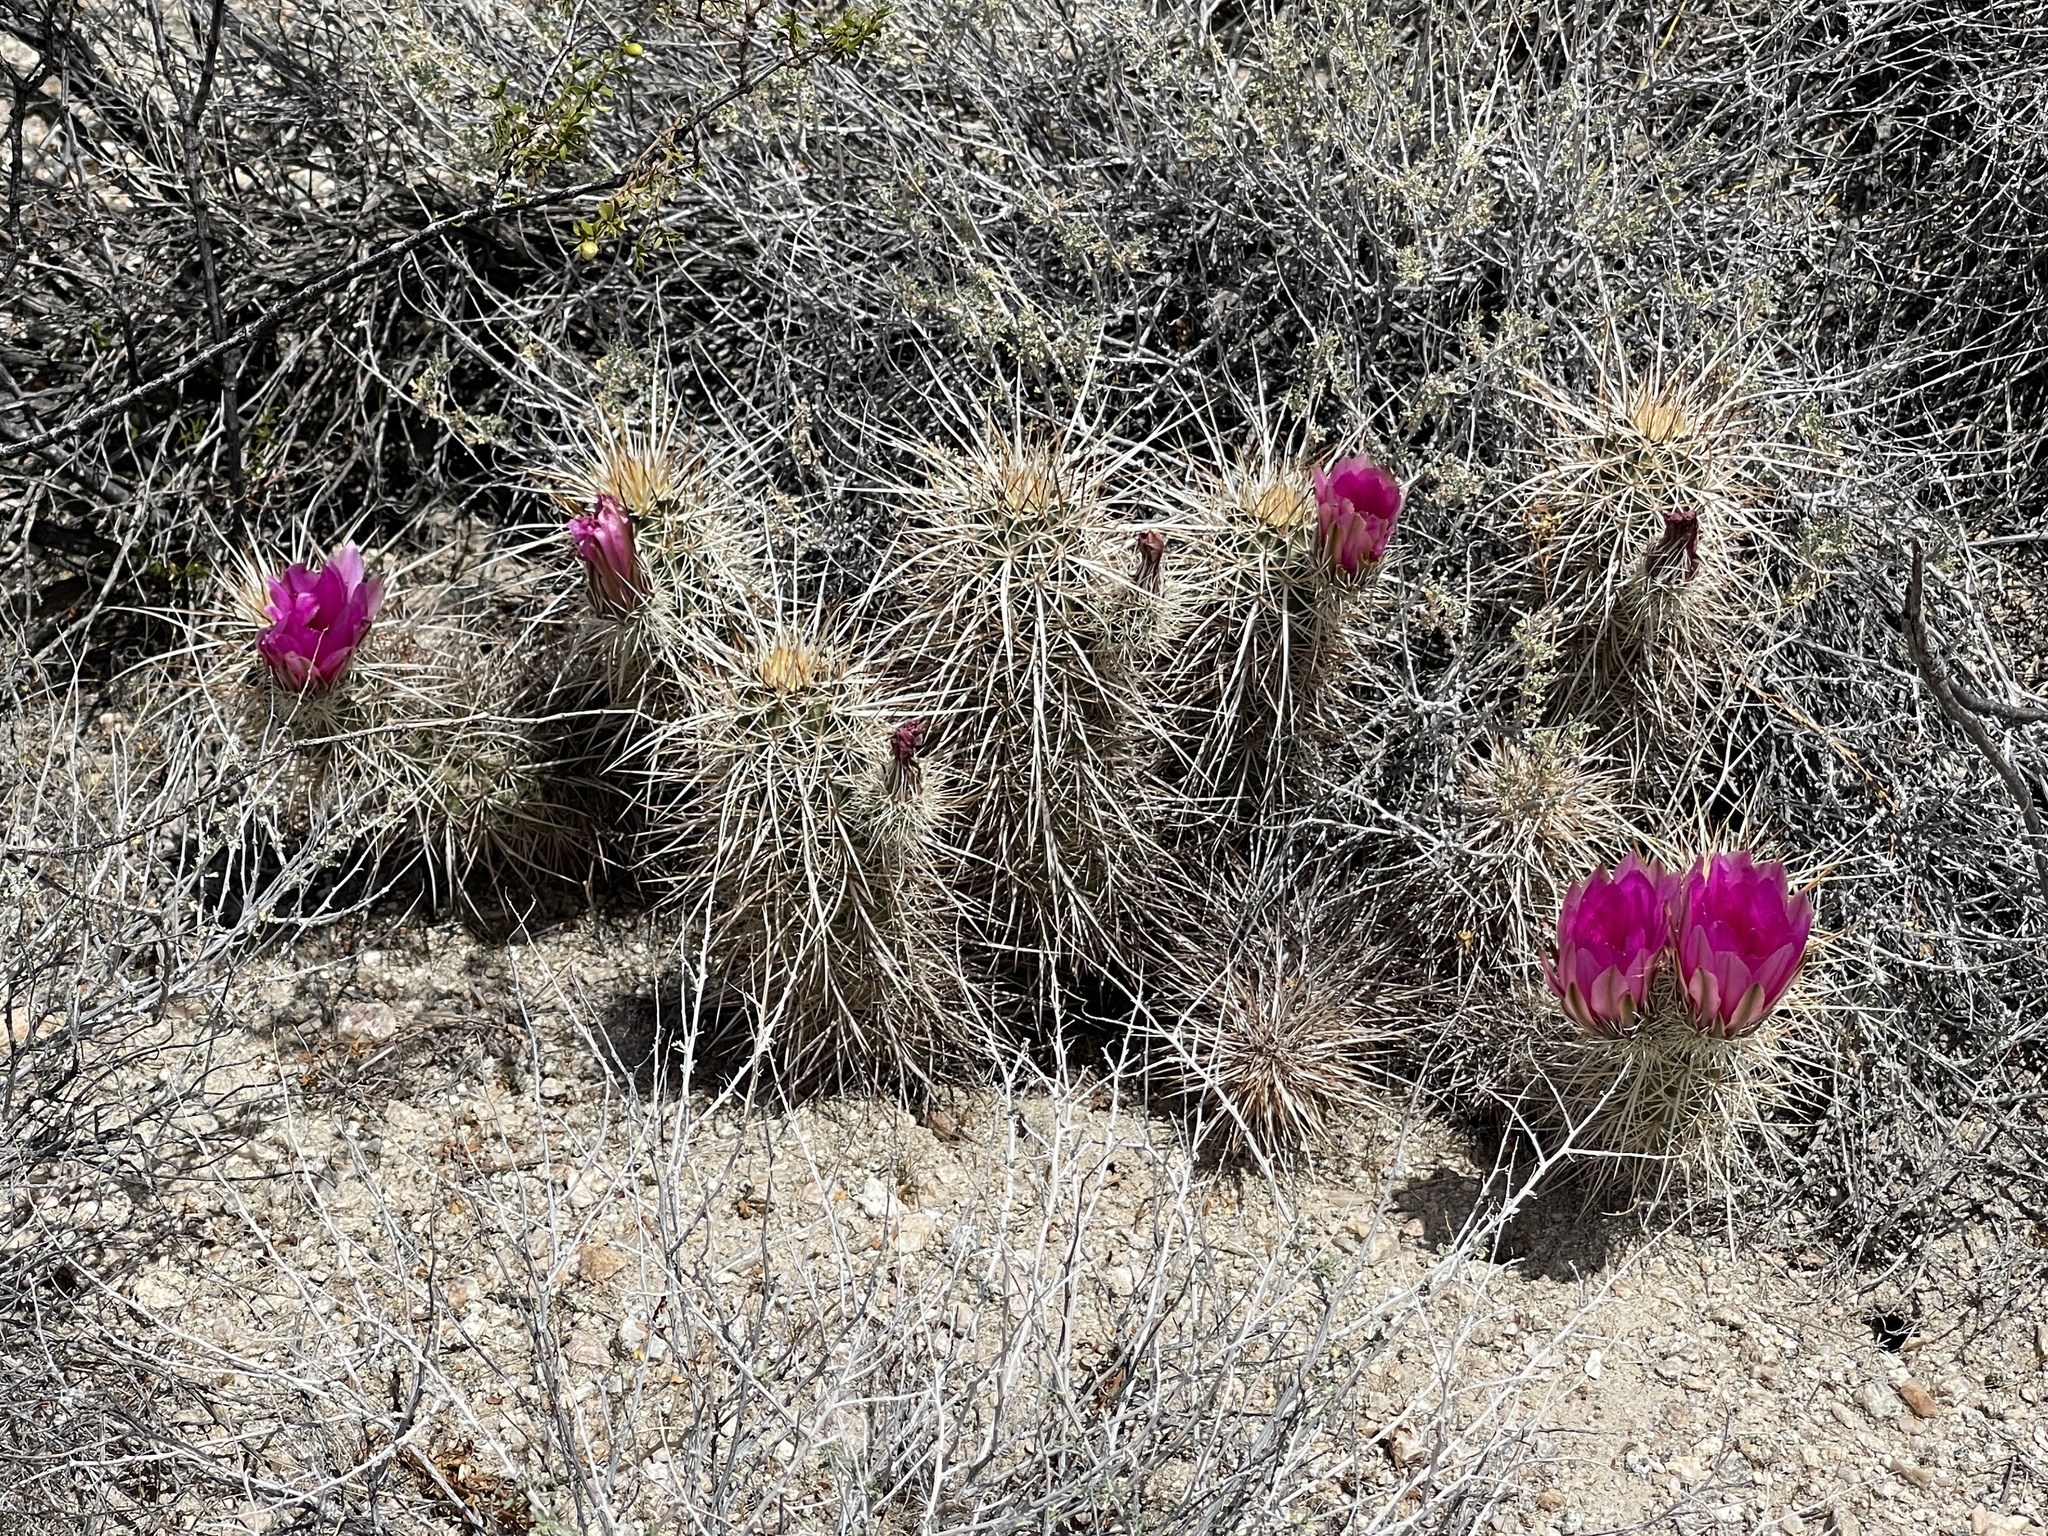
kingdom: Plantae
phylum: Tracheophyta
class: Magnoliopsida
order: Caryophyllales
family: Cactaceae
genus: Echinocereus
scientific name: Echinocereus engelmannii
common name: Engelmann's hedgehog cactus
